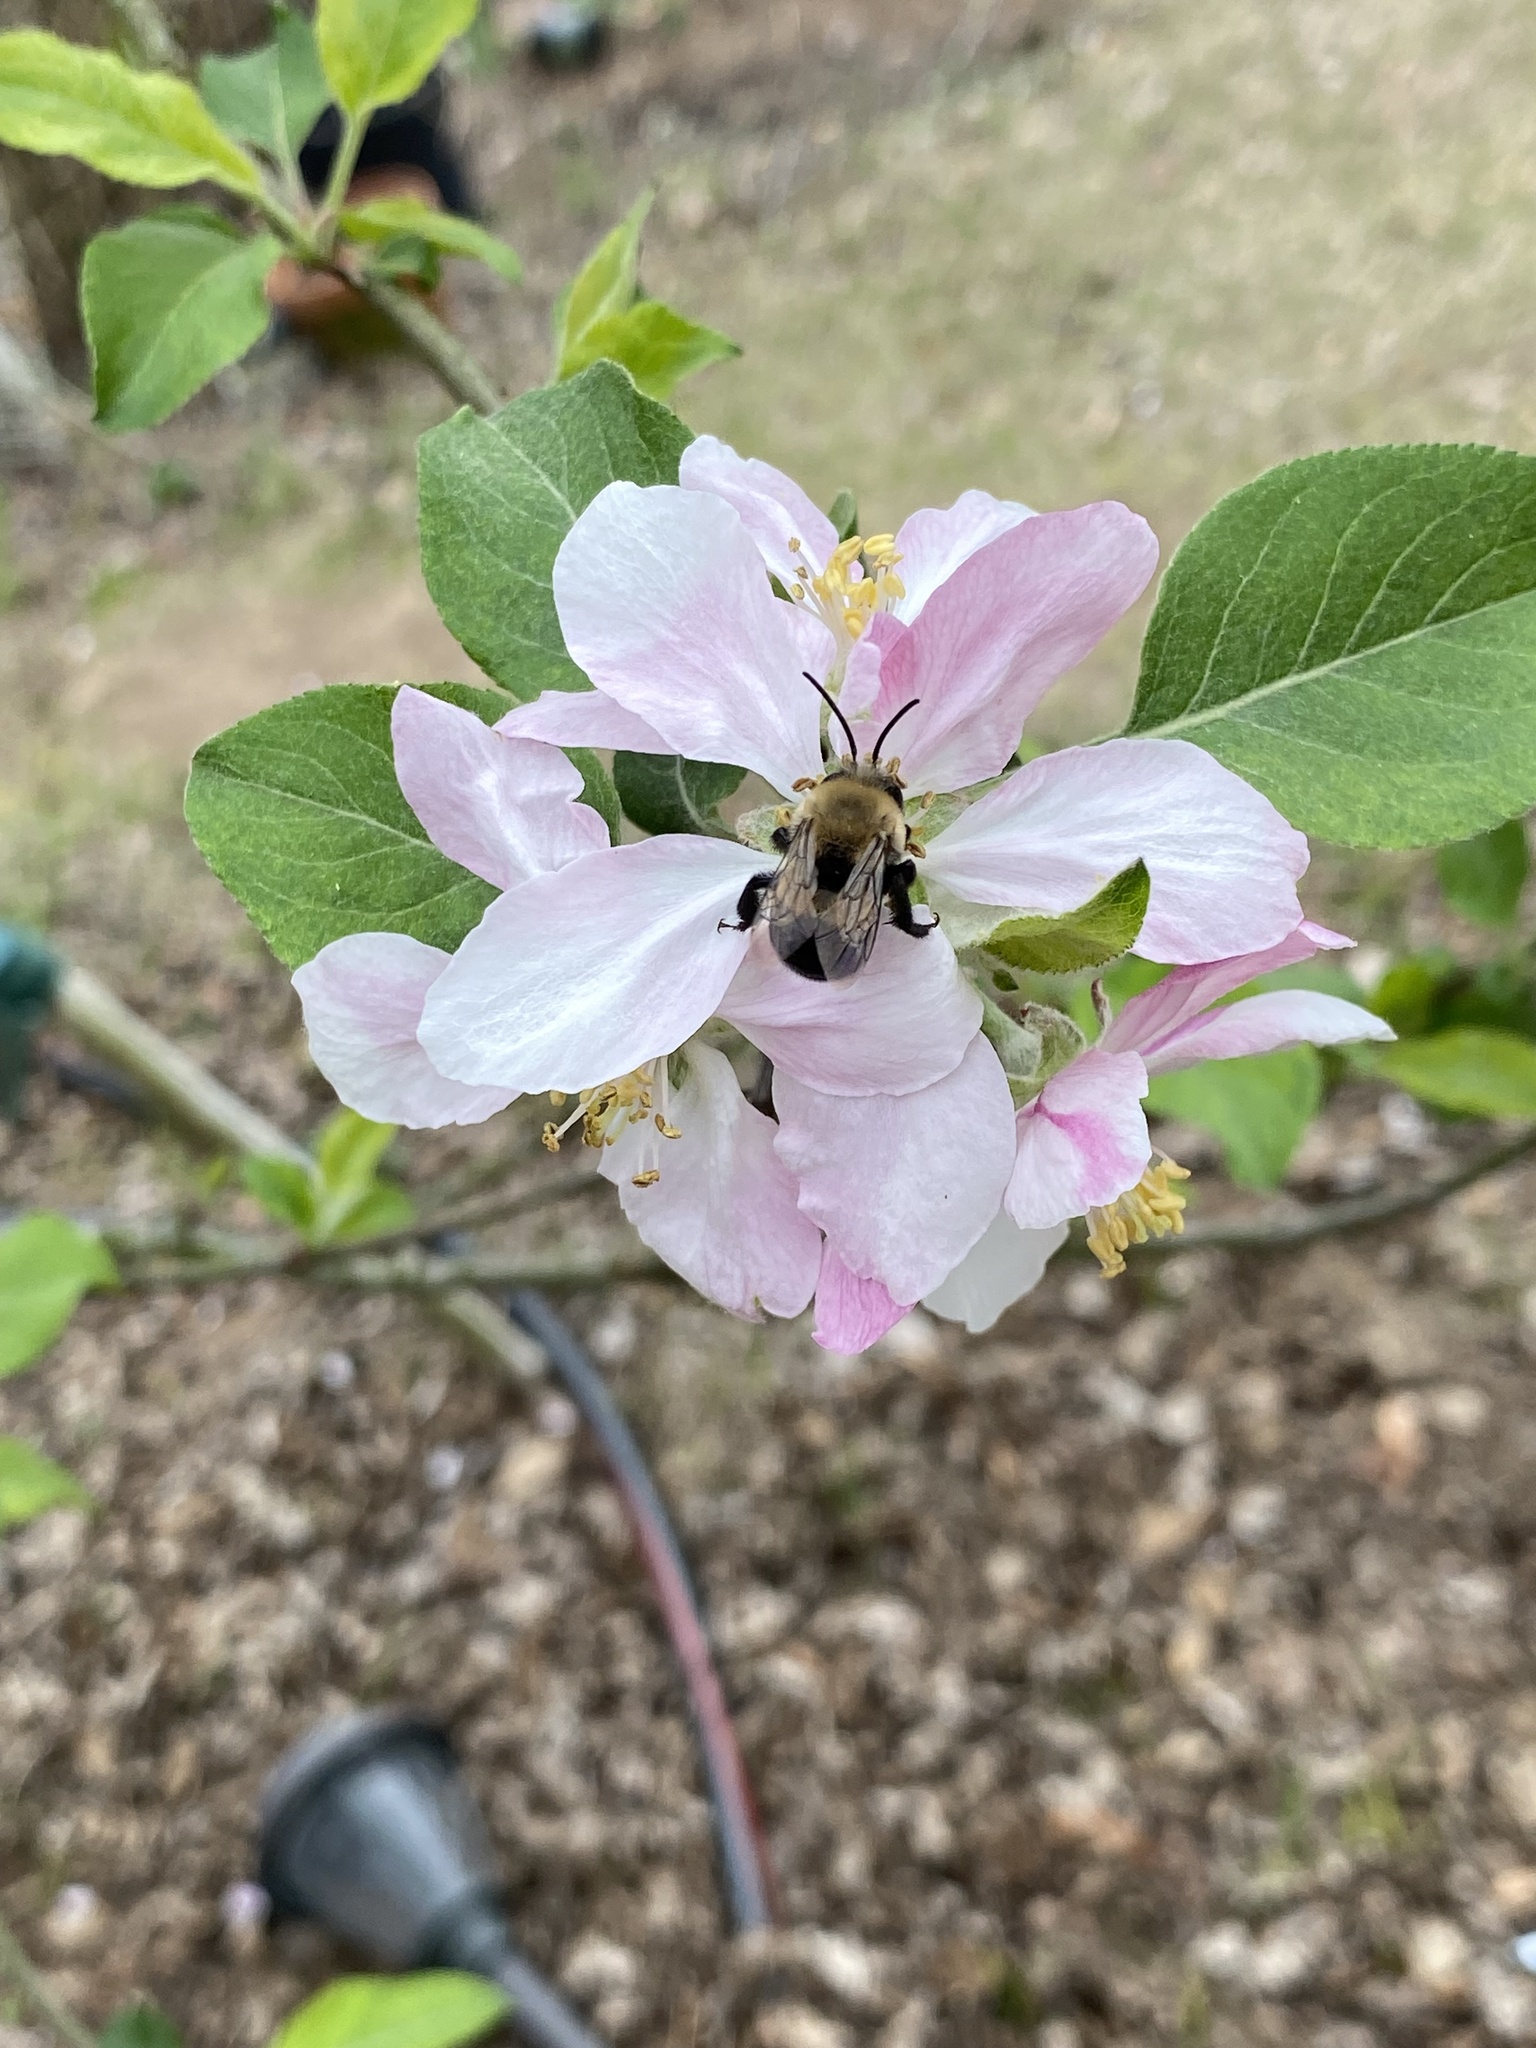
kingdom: Animalia
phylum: Arthropoda
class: Insecta
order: Hymenoptera
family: Apidae
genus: Habropoda
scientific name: Habropoda laboriosa
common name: Southeastern blueberry bee
